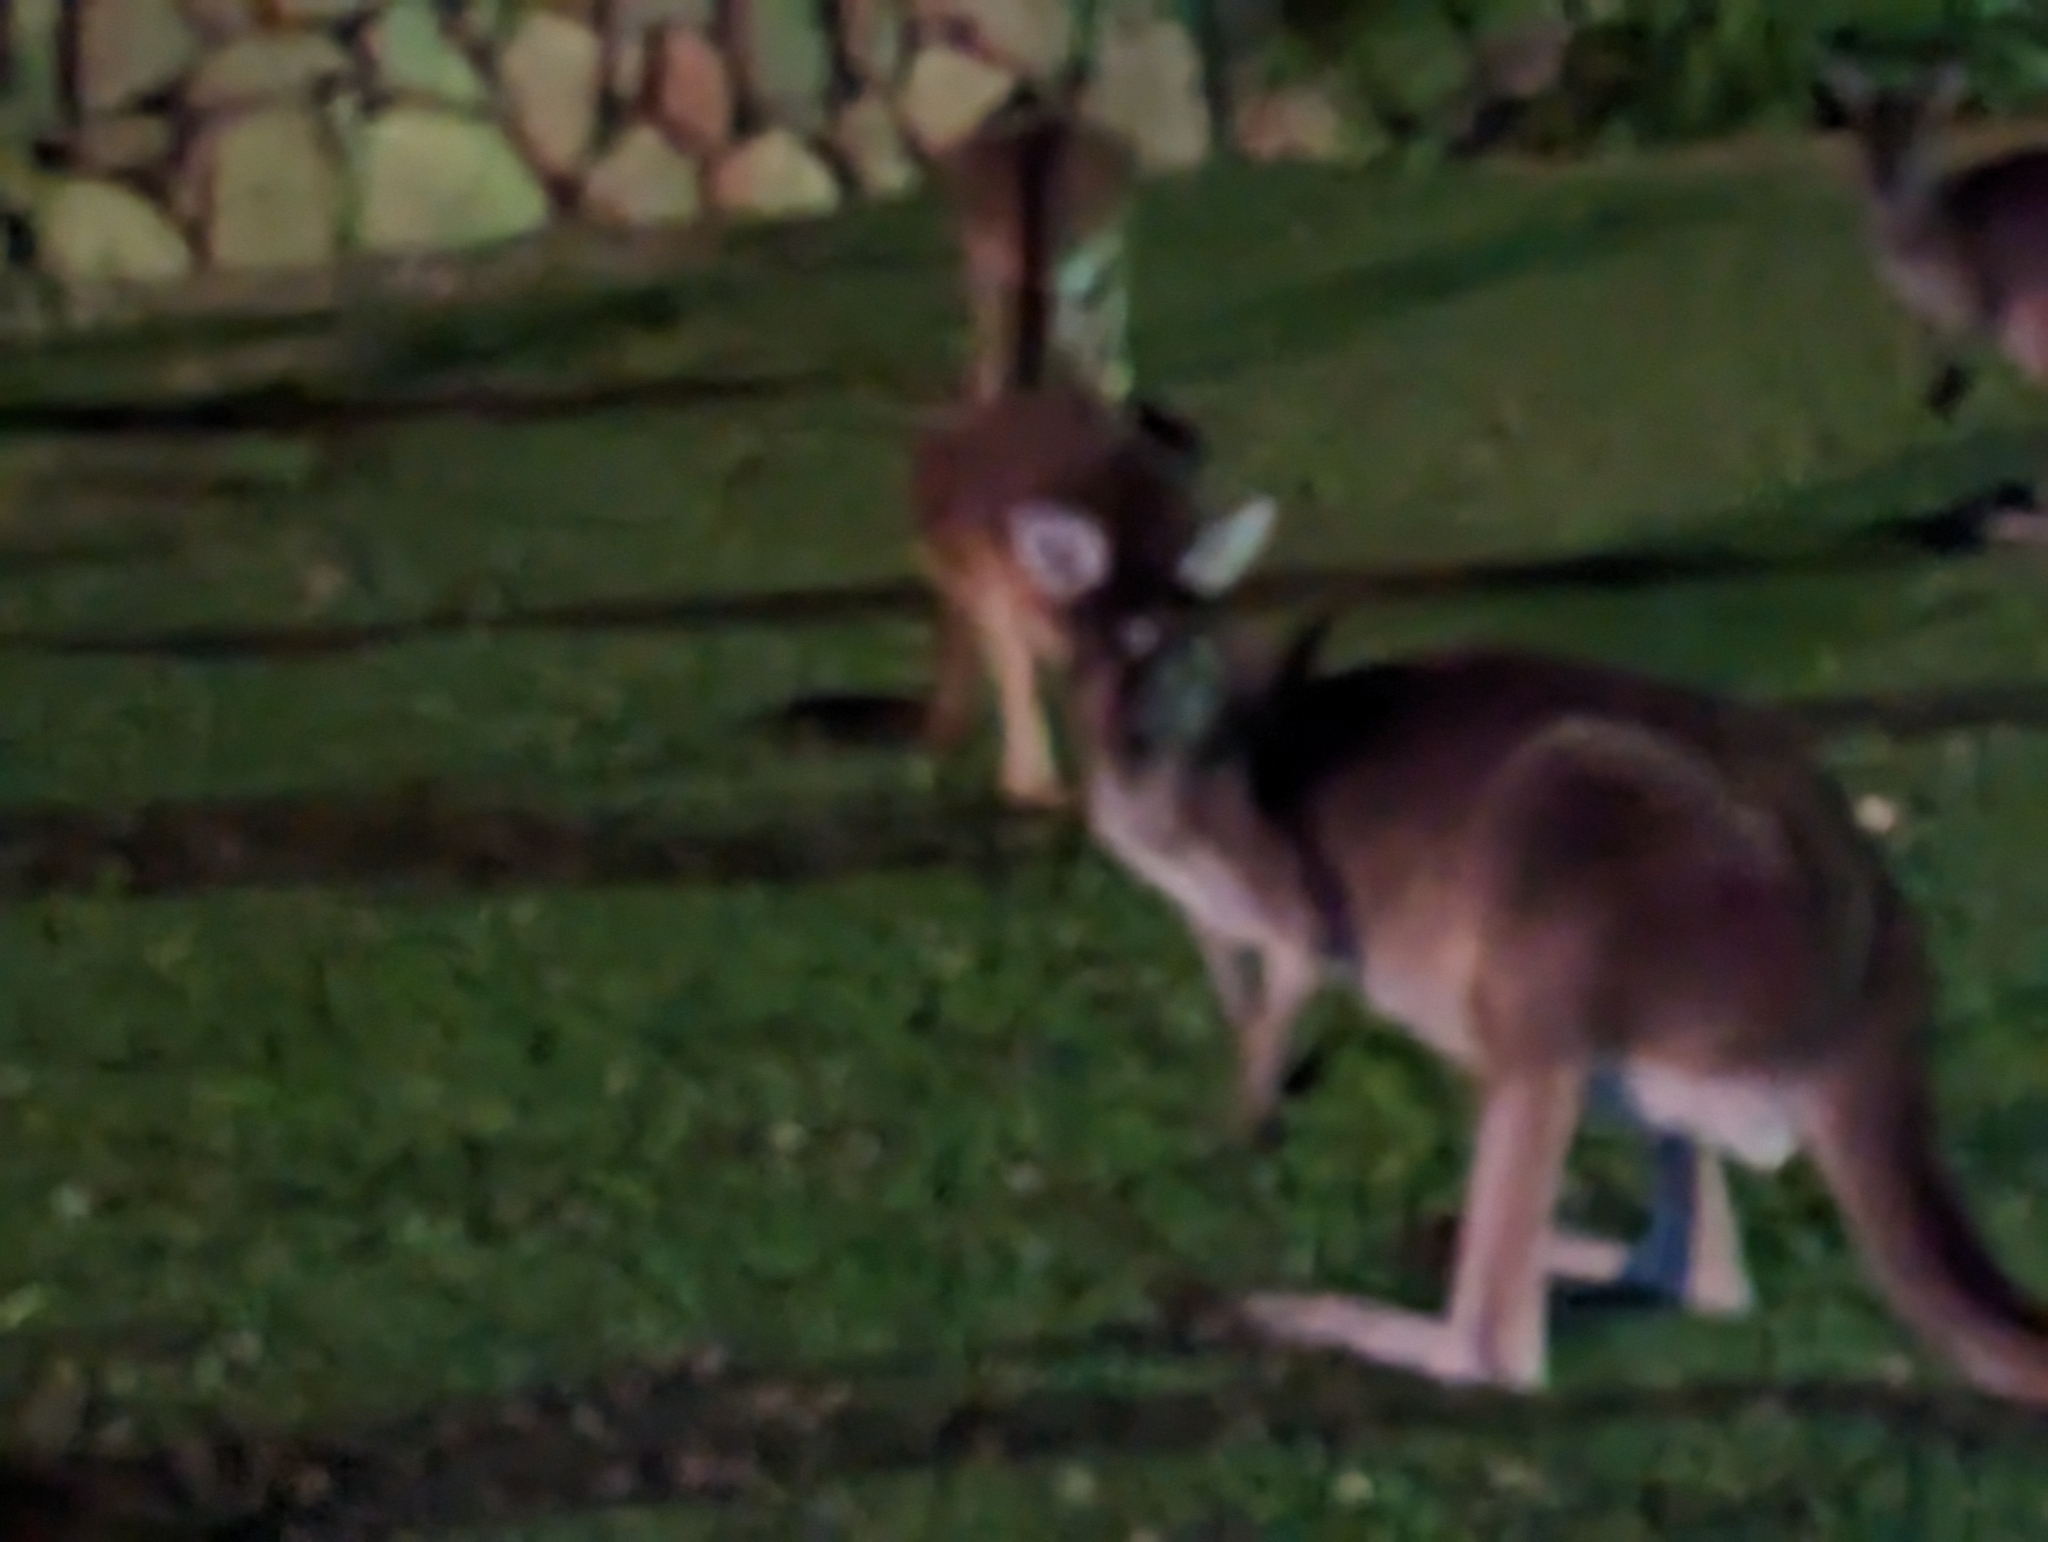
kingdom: Animalia
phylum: Chordata
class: Mammalia
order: Diprotodontia
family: Macropodidae
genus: Macropus
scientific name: Macropus fuliginosus
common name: Western grey kangaroo
